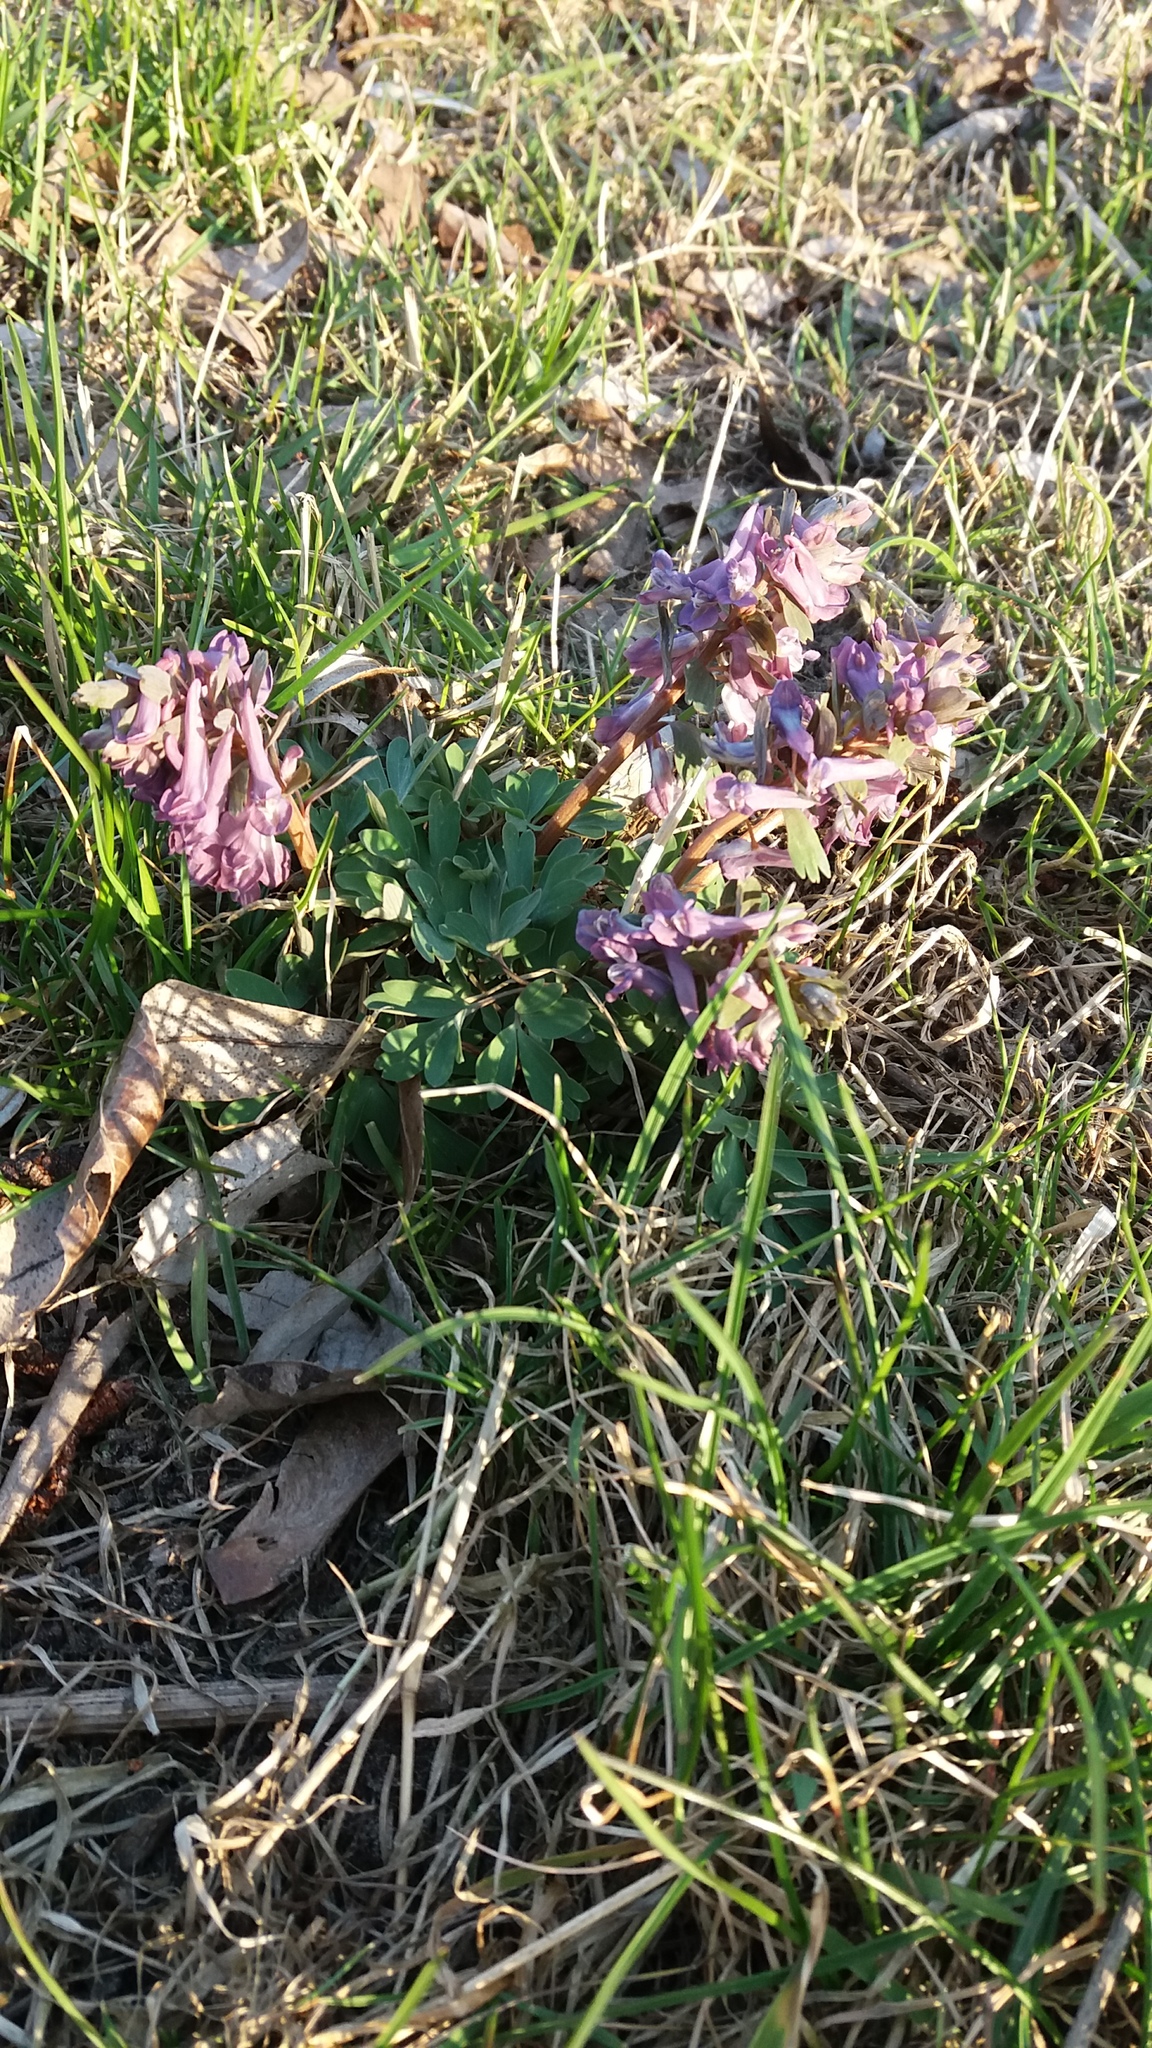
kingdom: Plantae
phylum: Tracheophyta
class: Magnoliopsida
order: Ranunculales
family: Papaveraceae
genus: Corydalis
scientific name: Corydalis solida
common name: Bird-in-a-bush
